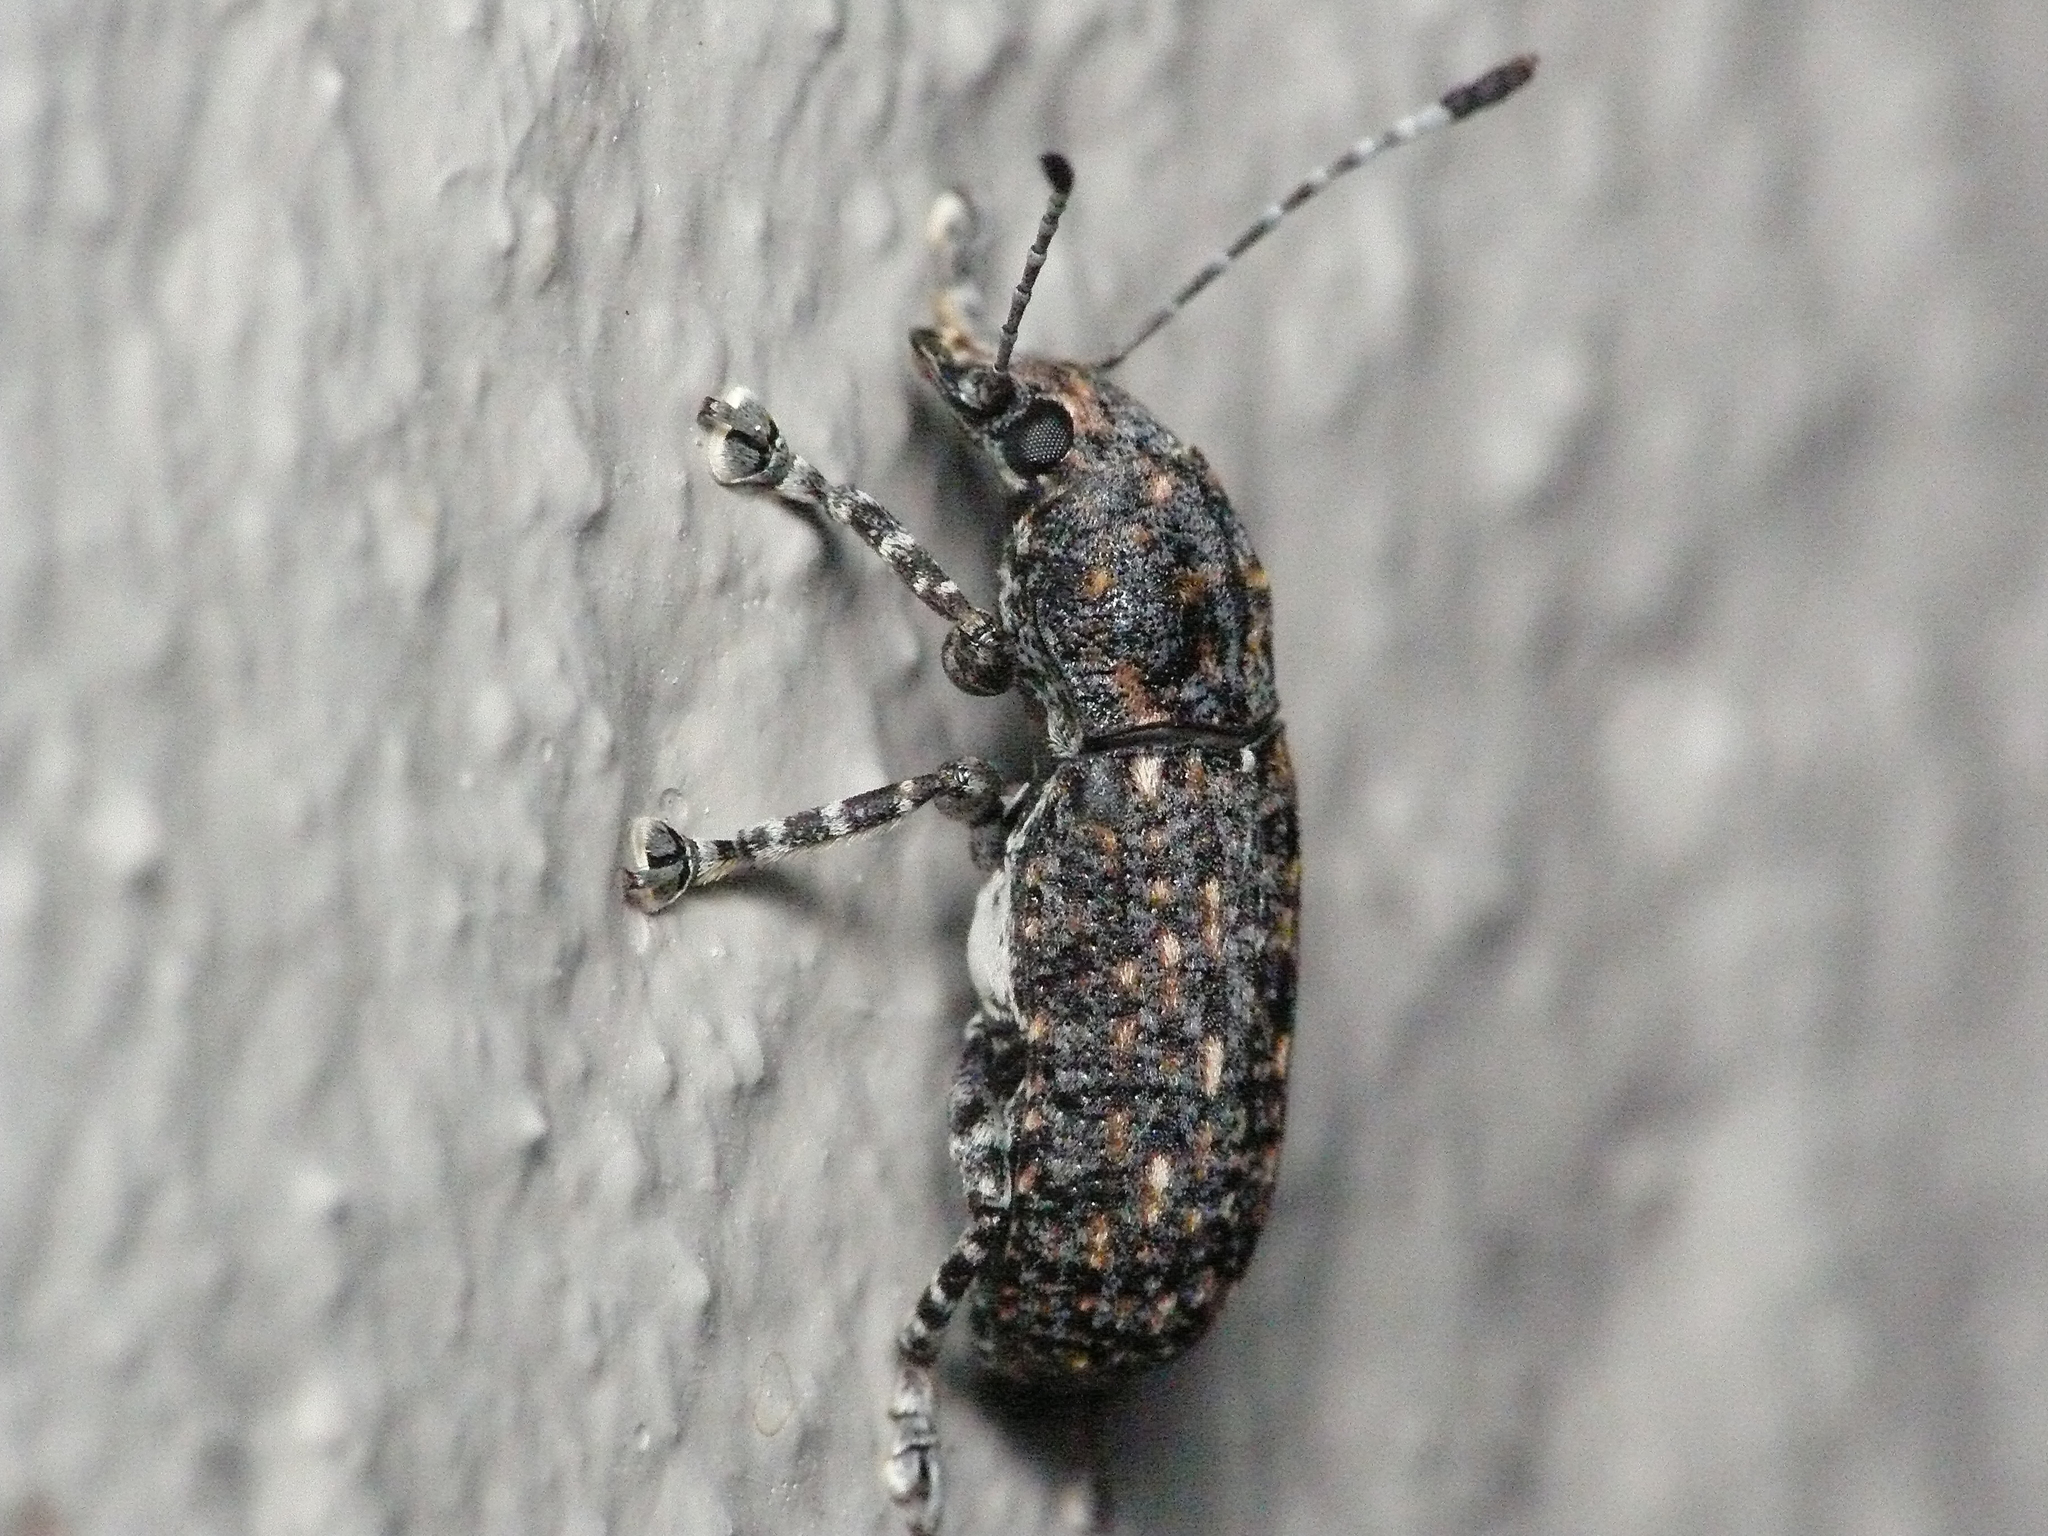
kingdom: Animalia
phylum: Arthropoda
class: Insecta
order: Coleoptera
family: Anthribidae
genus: Phoenicobiella
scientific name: Phoenicobiella chamaeropis
